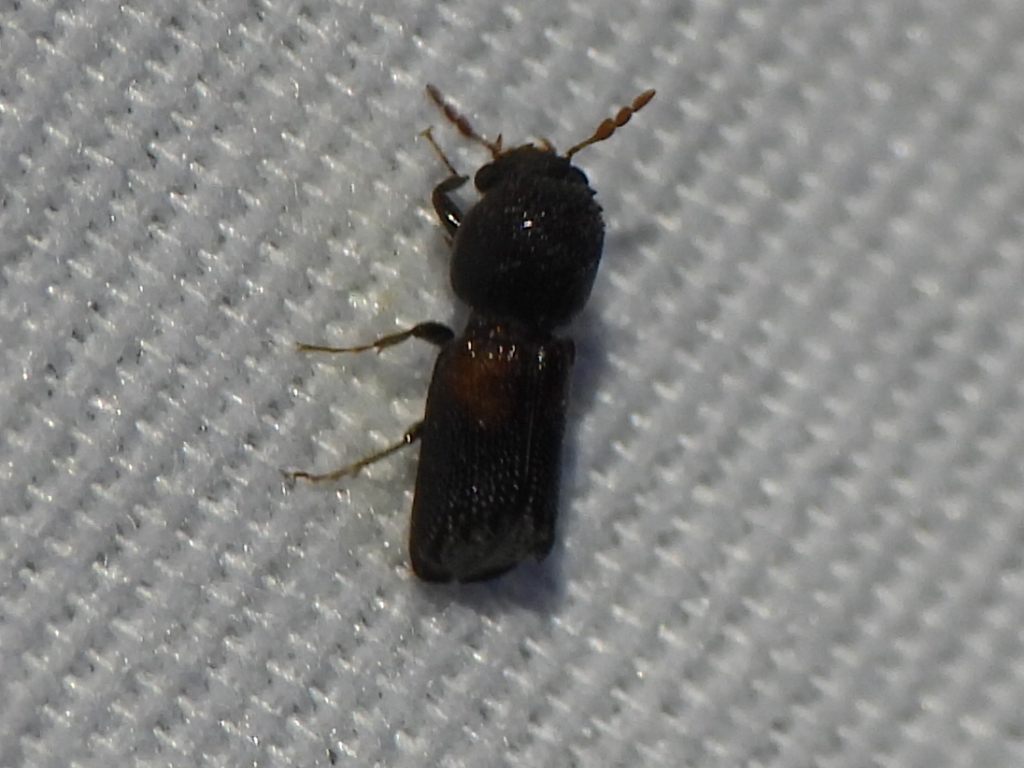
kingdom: Animalia
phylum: Arthropoda
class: Insecta
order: Coleoptera
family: Bostrichidae
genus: Xylobiops
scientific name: Xylobiops basilaris
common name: Red-shouldered bostrichid
